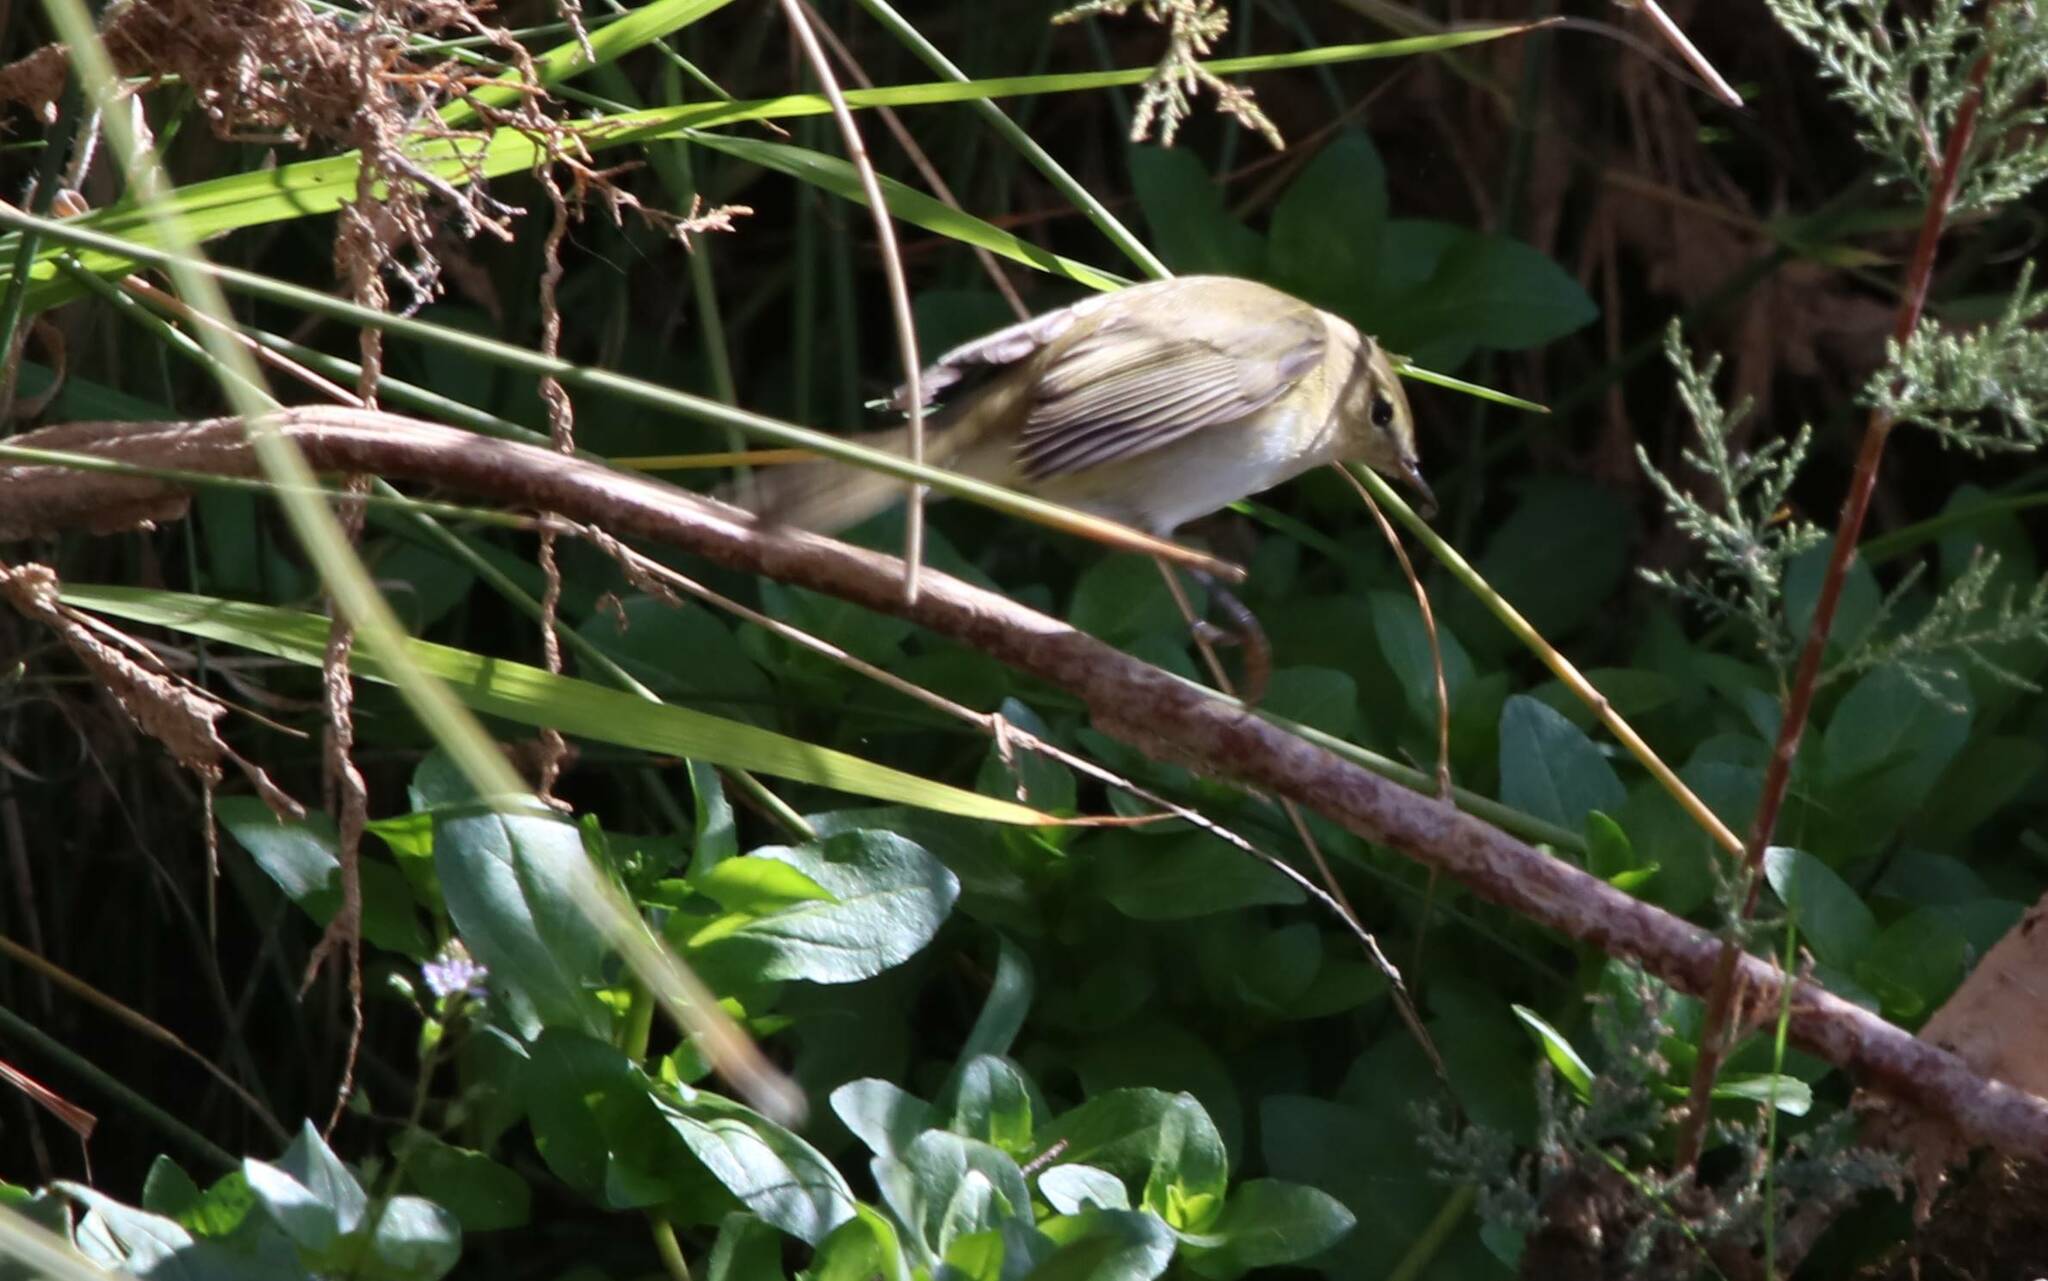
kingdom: Animalia
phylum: Chordata
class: Aves
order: Passeriformes
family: Phylloscopidae
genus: Phylloscopus
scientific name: Phylloscopus collybita
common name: Common chiffchaff
